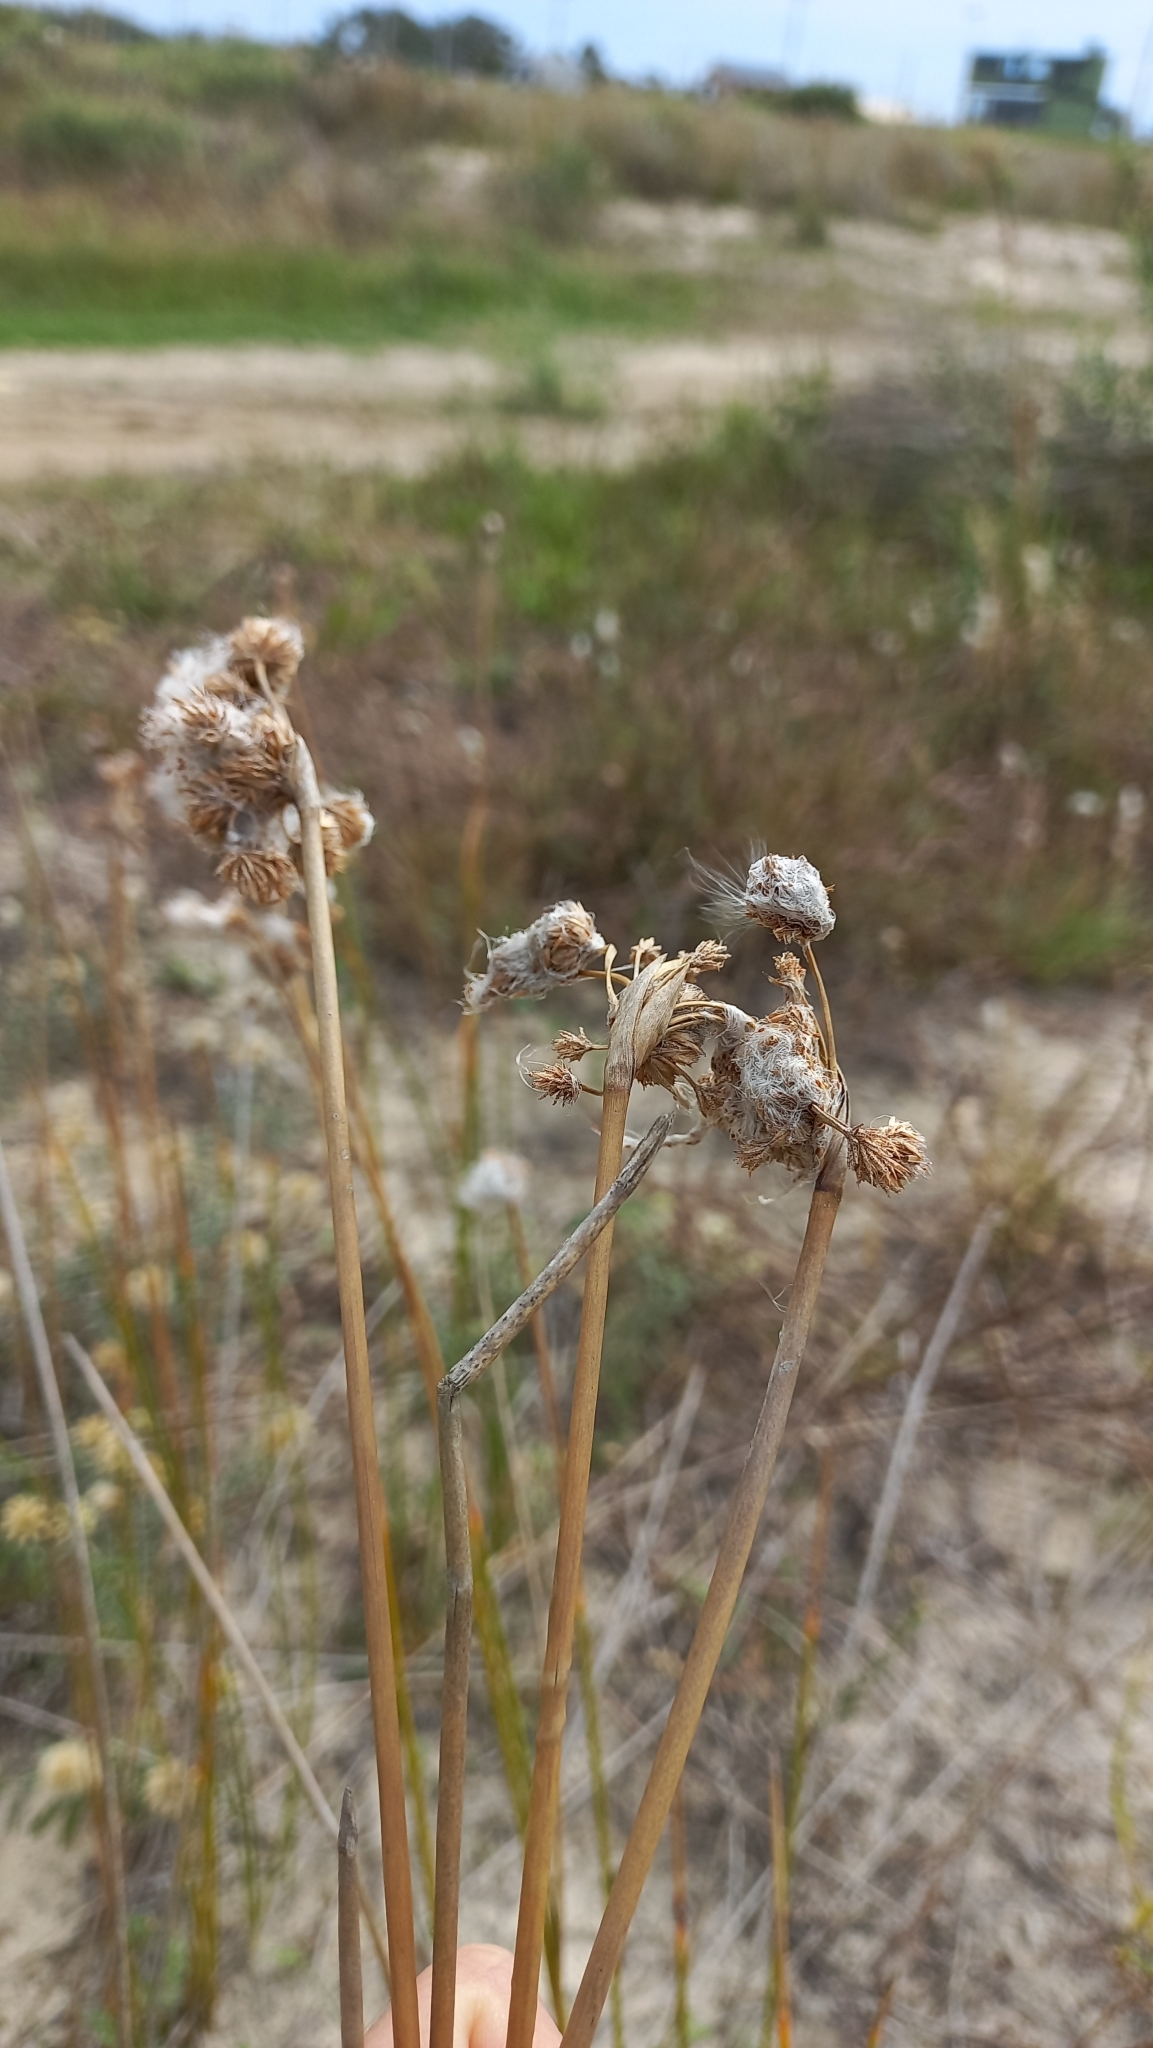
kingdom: Plantae
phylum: Tracheophyta
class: Liliopsida
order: Poales
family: Cyperaceae
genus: Cyperus
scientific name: Cyperus trigynus
